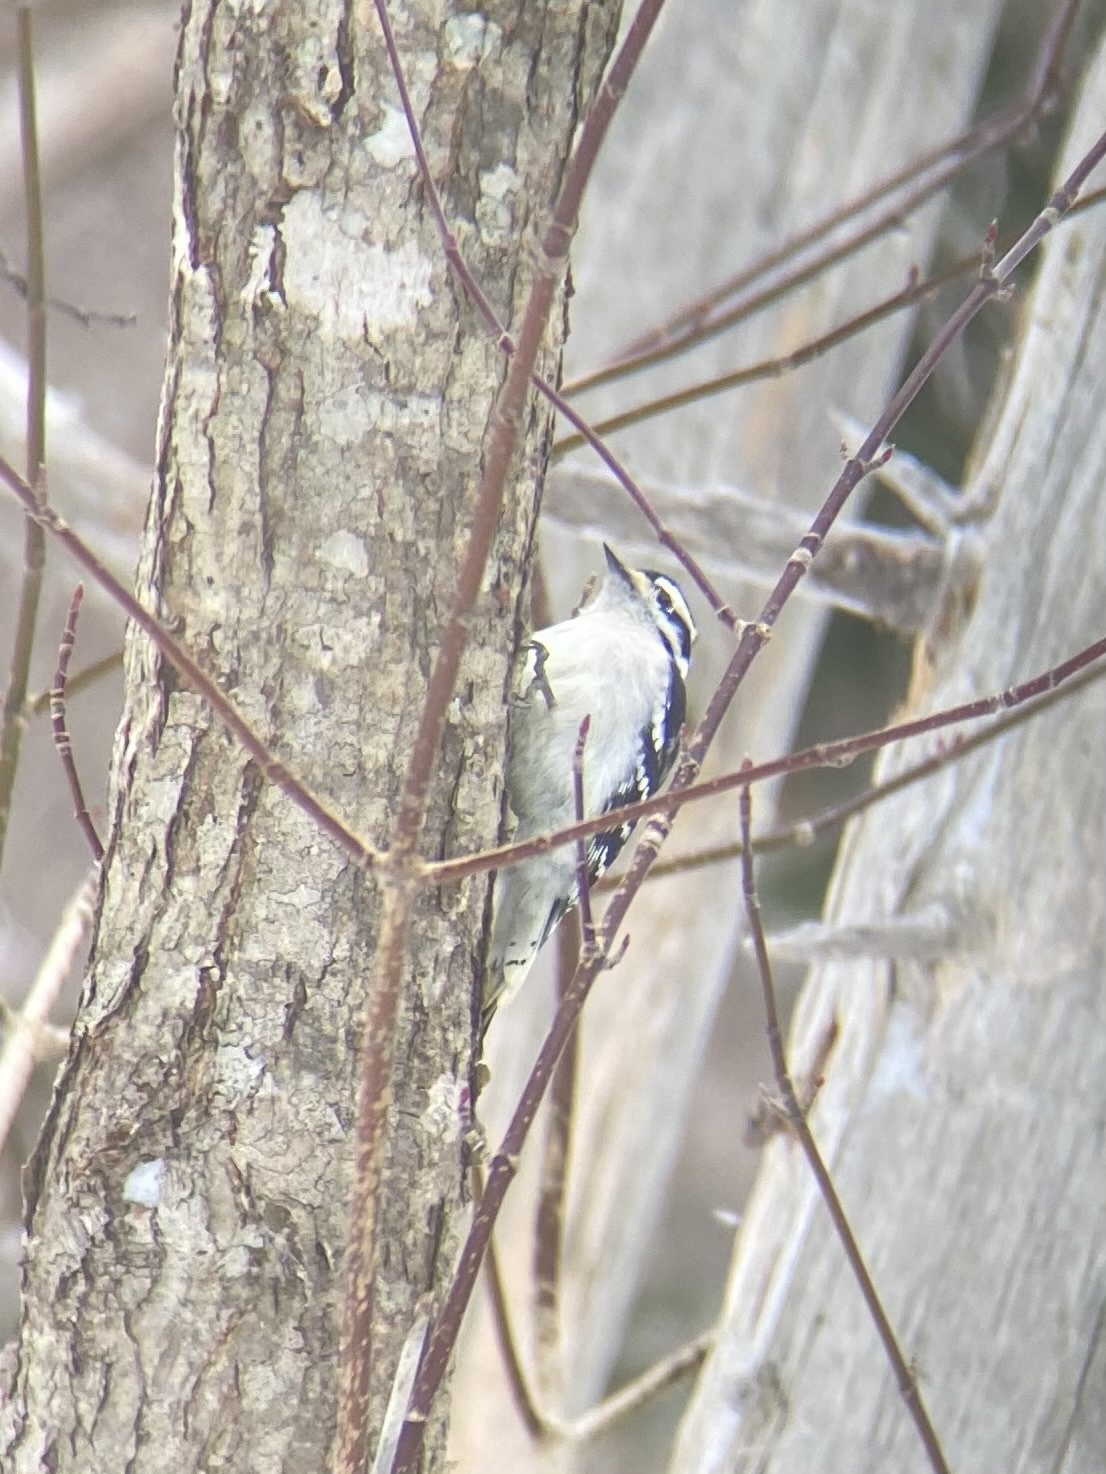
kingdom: Animalia
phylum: Chordata
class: Aves
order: Piciformes
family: Picidae
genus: Dryobates
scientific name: Dryobates pubescens
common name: Downy woodpecker
